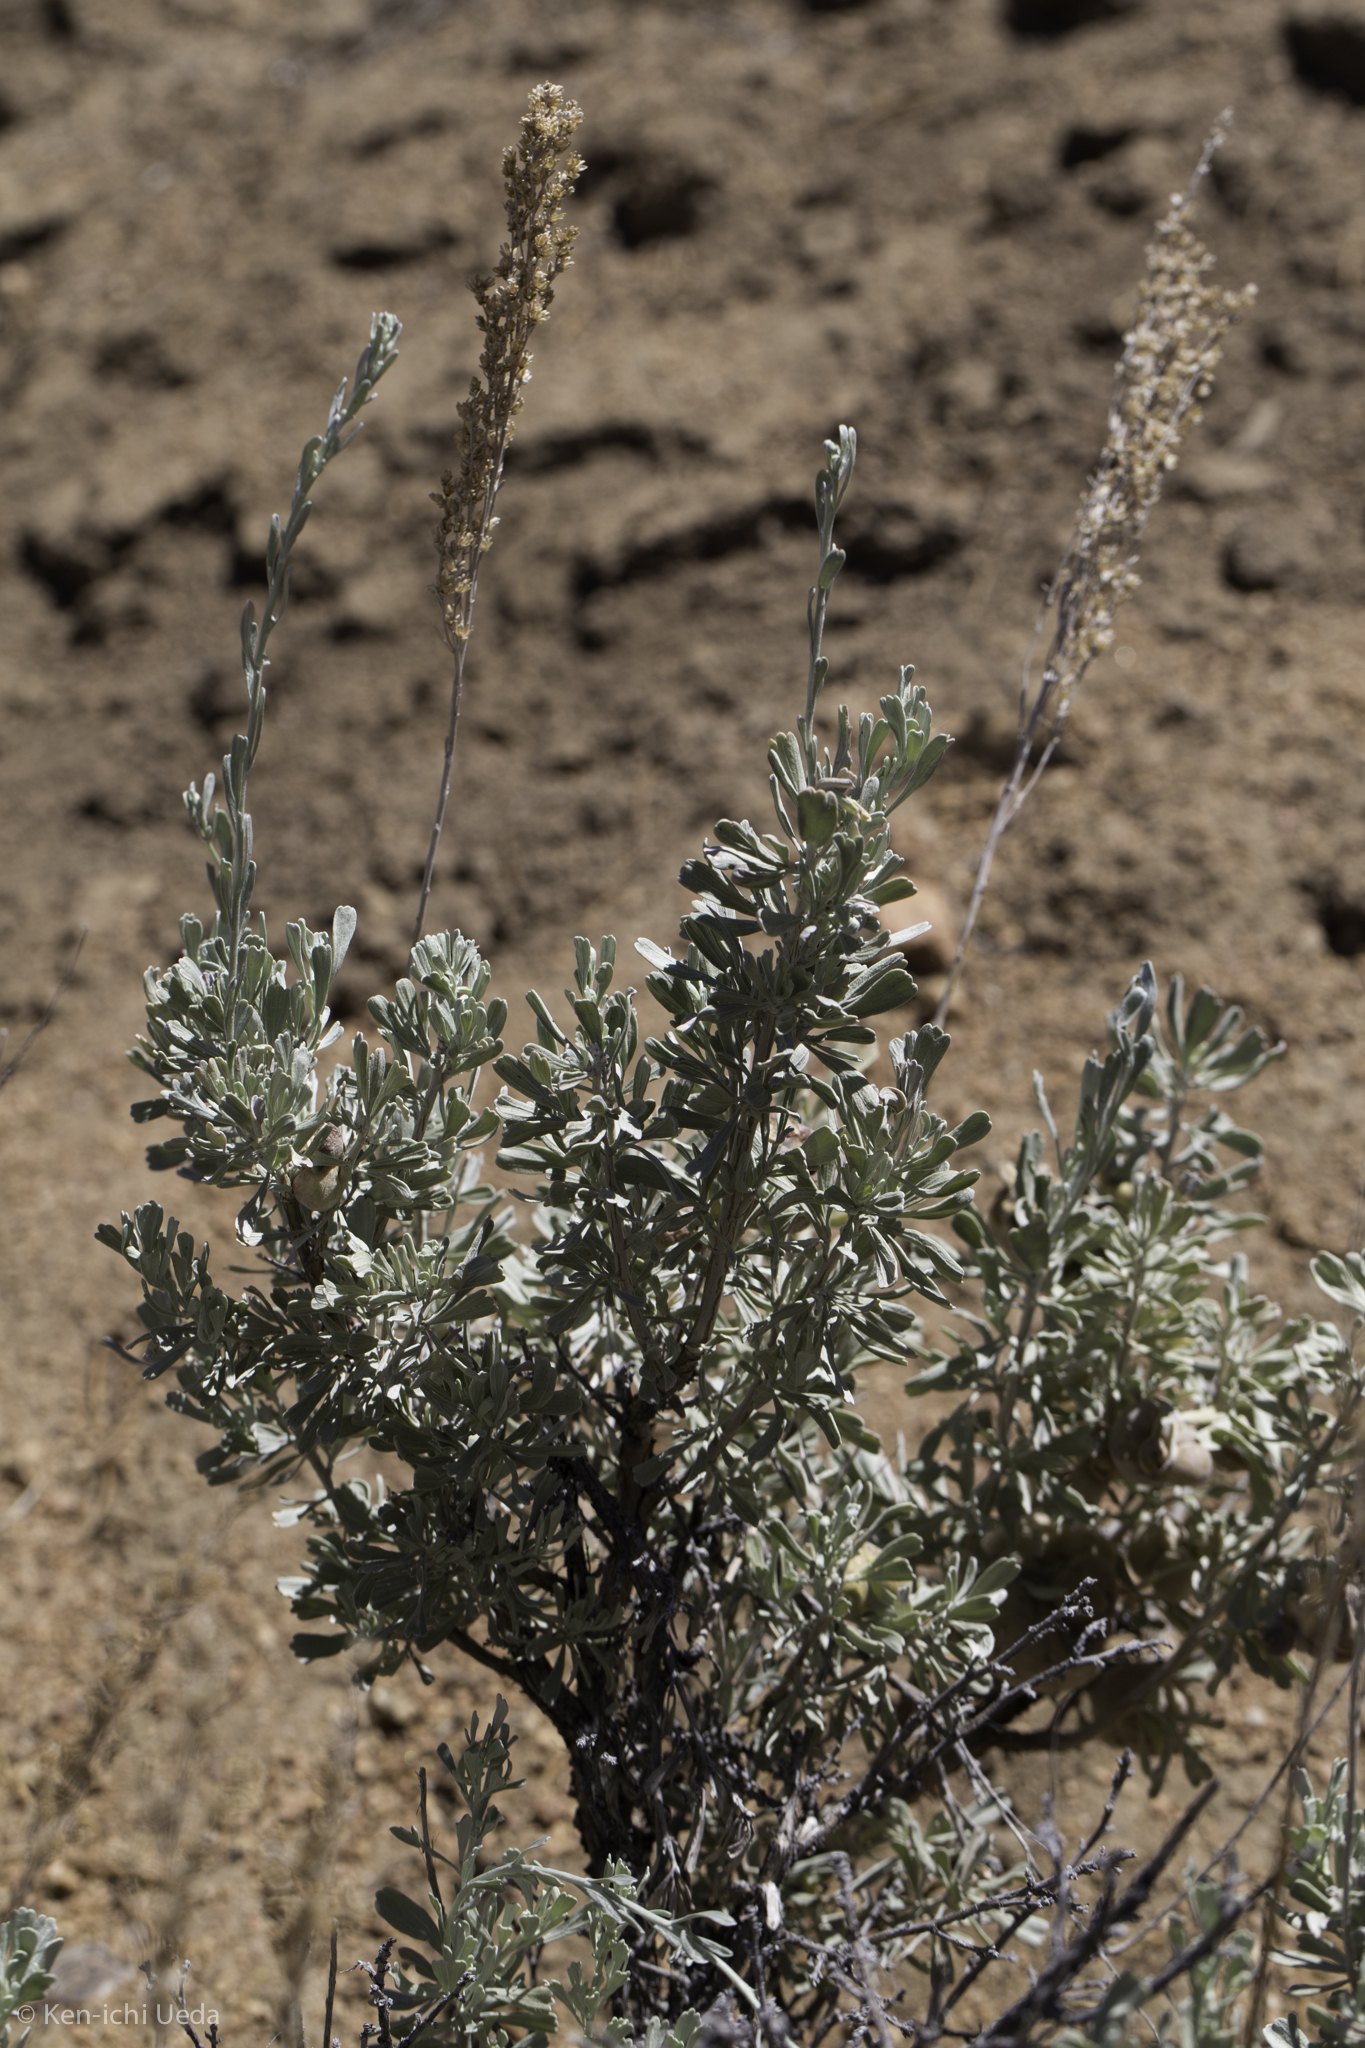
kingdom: Plantae
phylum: Tracheophyta
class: Magnoliopsida
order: Asterales
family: Asteraceae
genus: Artemisia
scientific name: Artemisia tridentata
